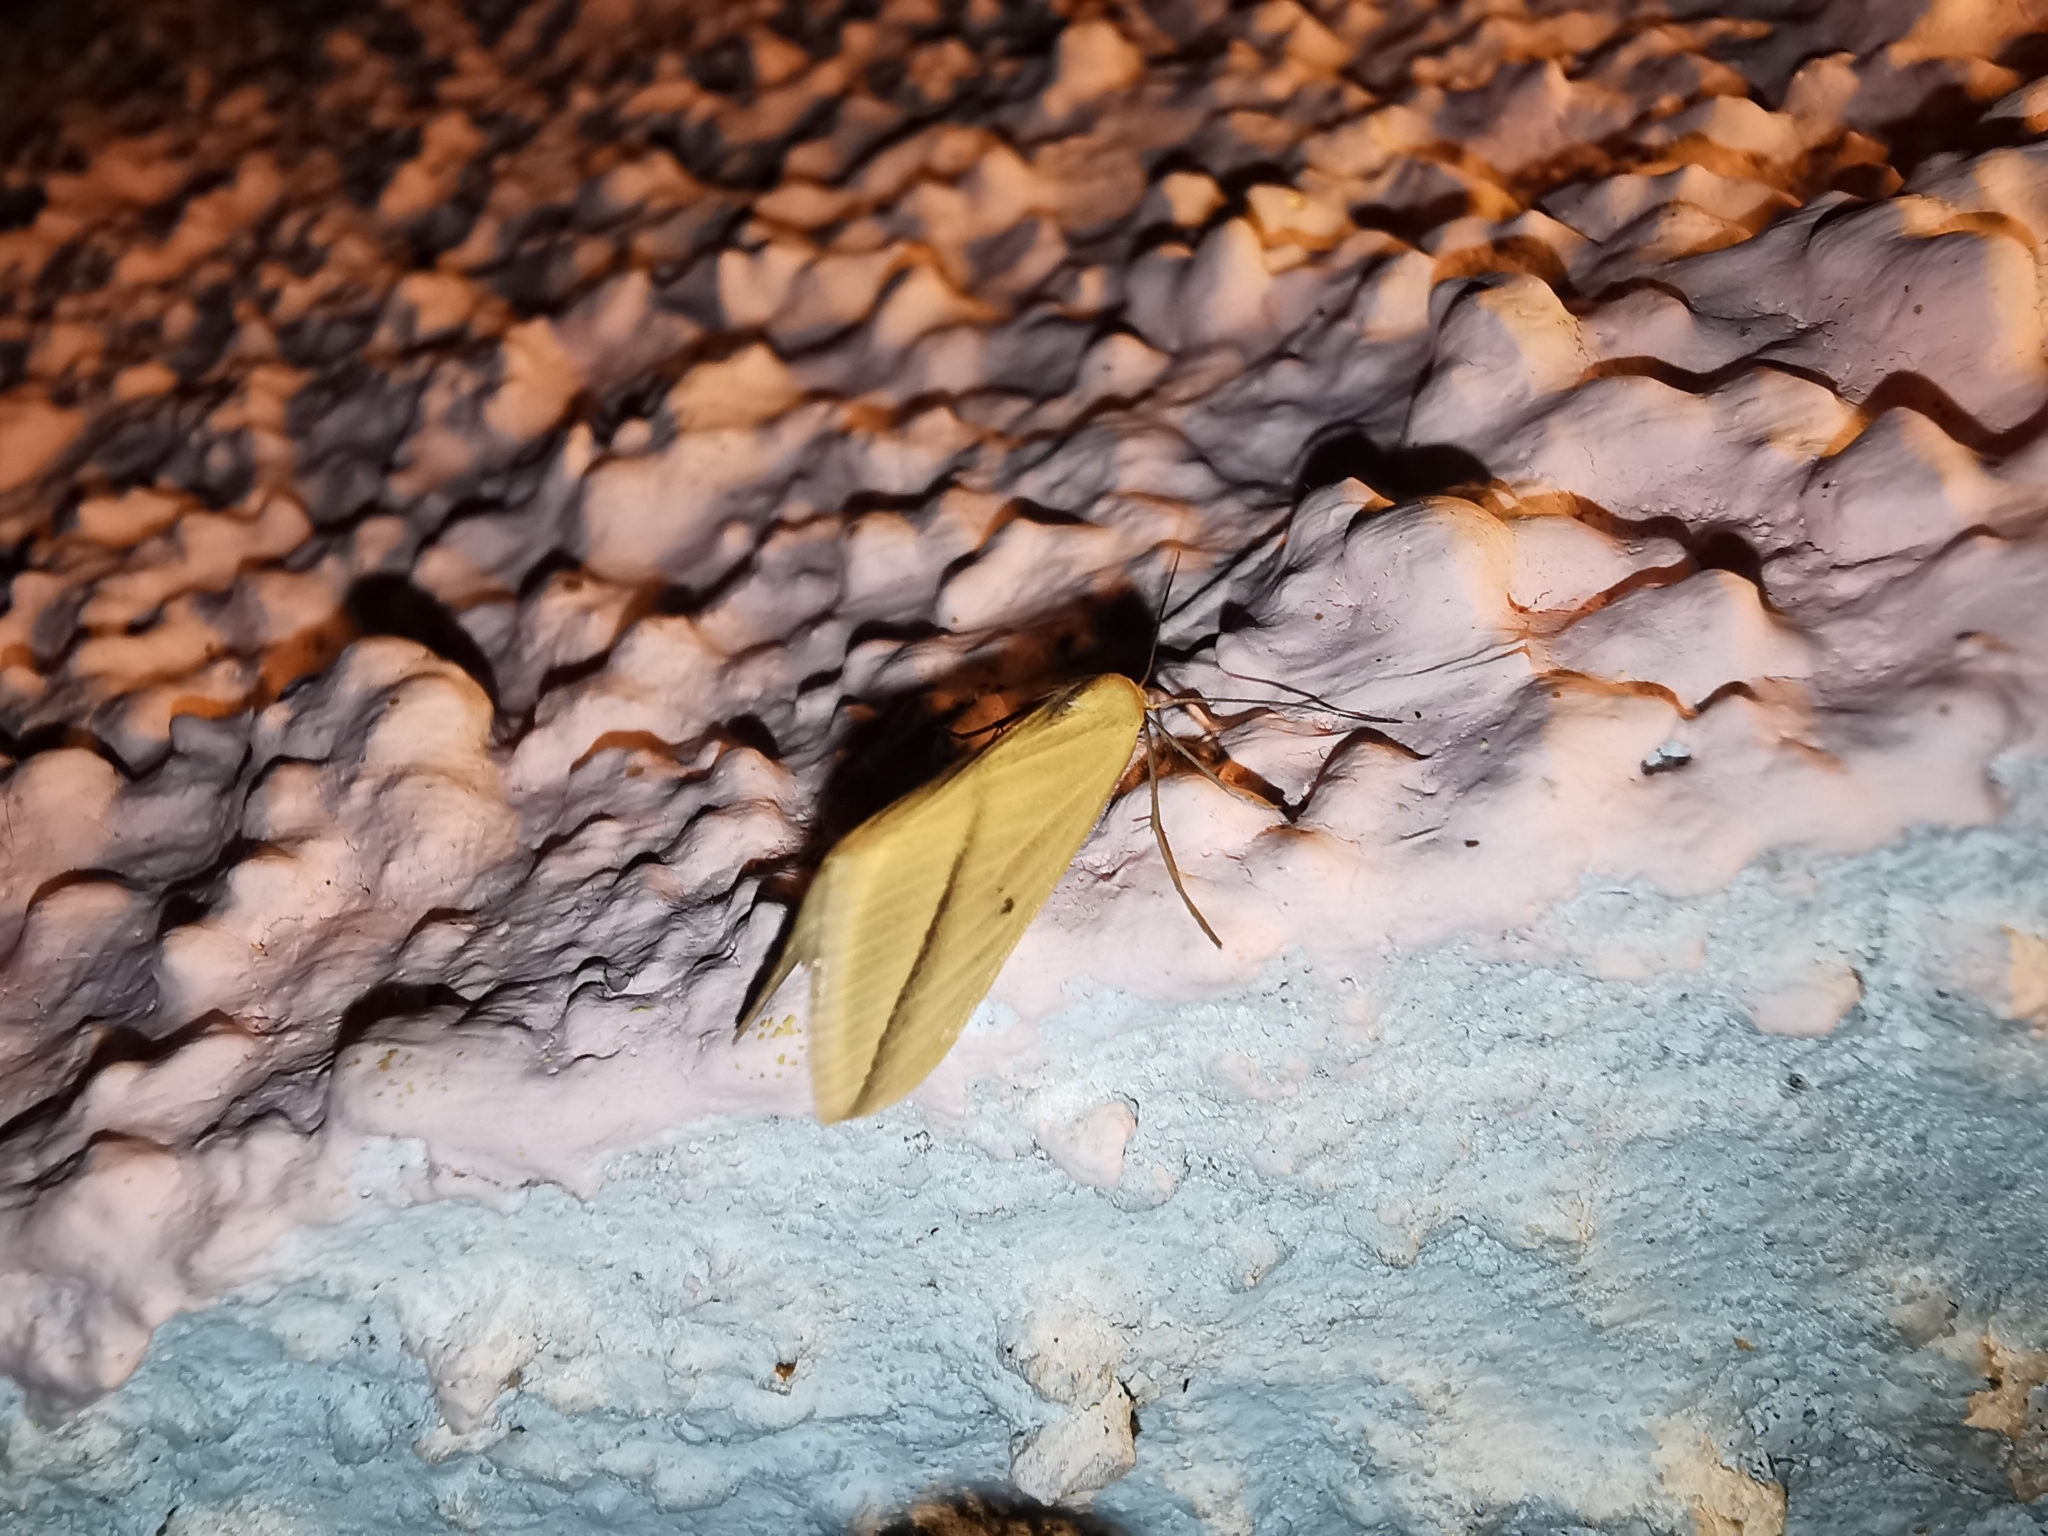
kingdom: Animalia
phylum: Arthropoda
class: Insecta
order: Lepidoptera
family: Geometridae
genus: Rhodometra
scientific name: Rhodometra sacraria
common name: Vestal
